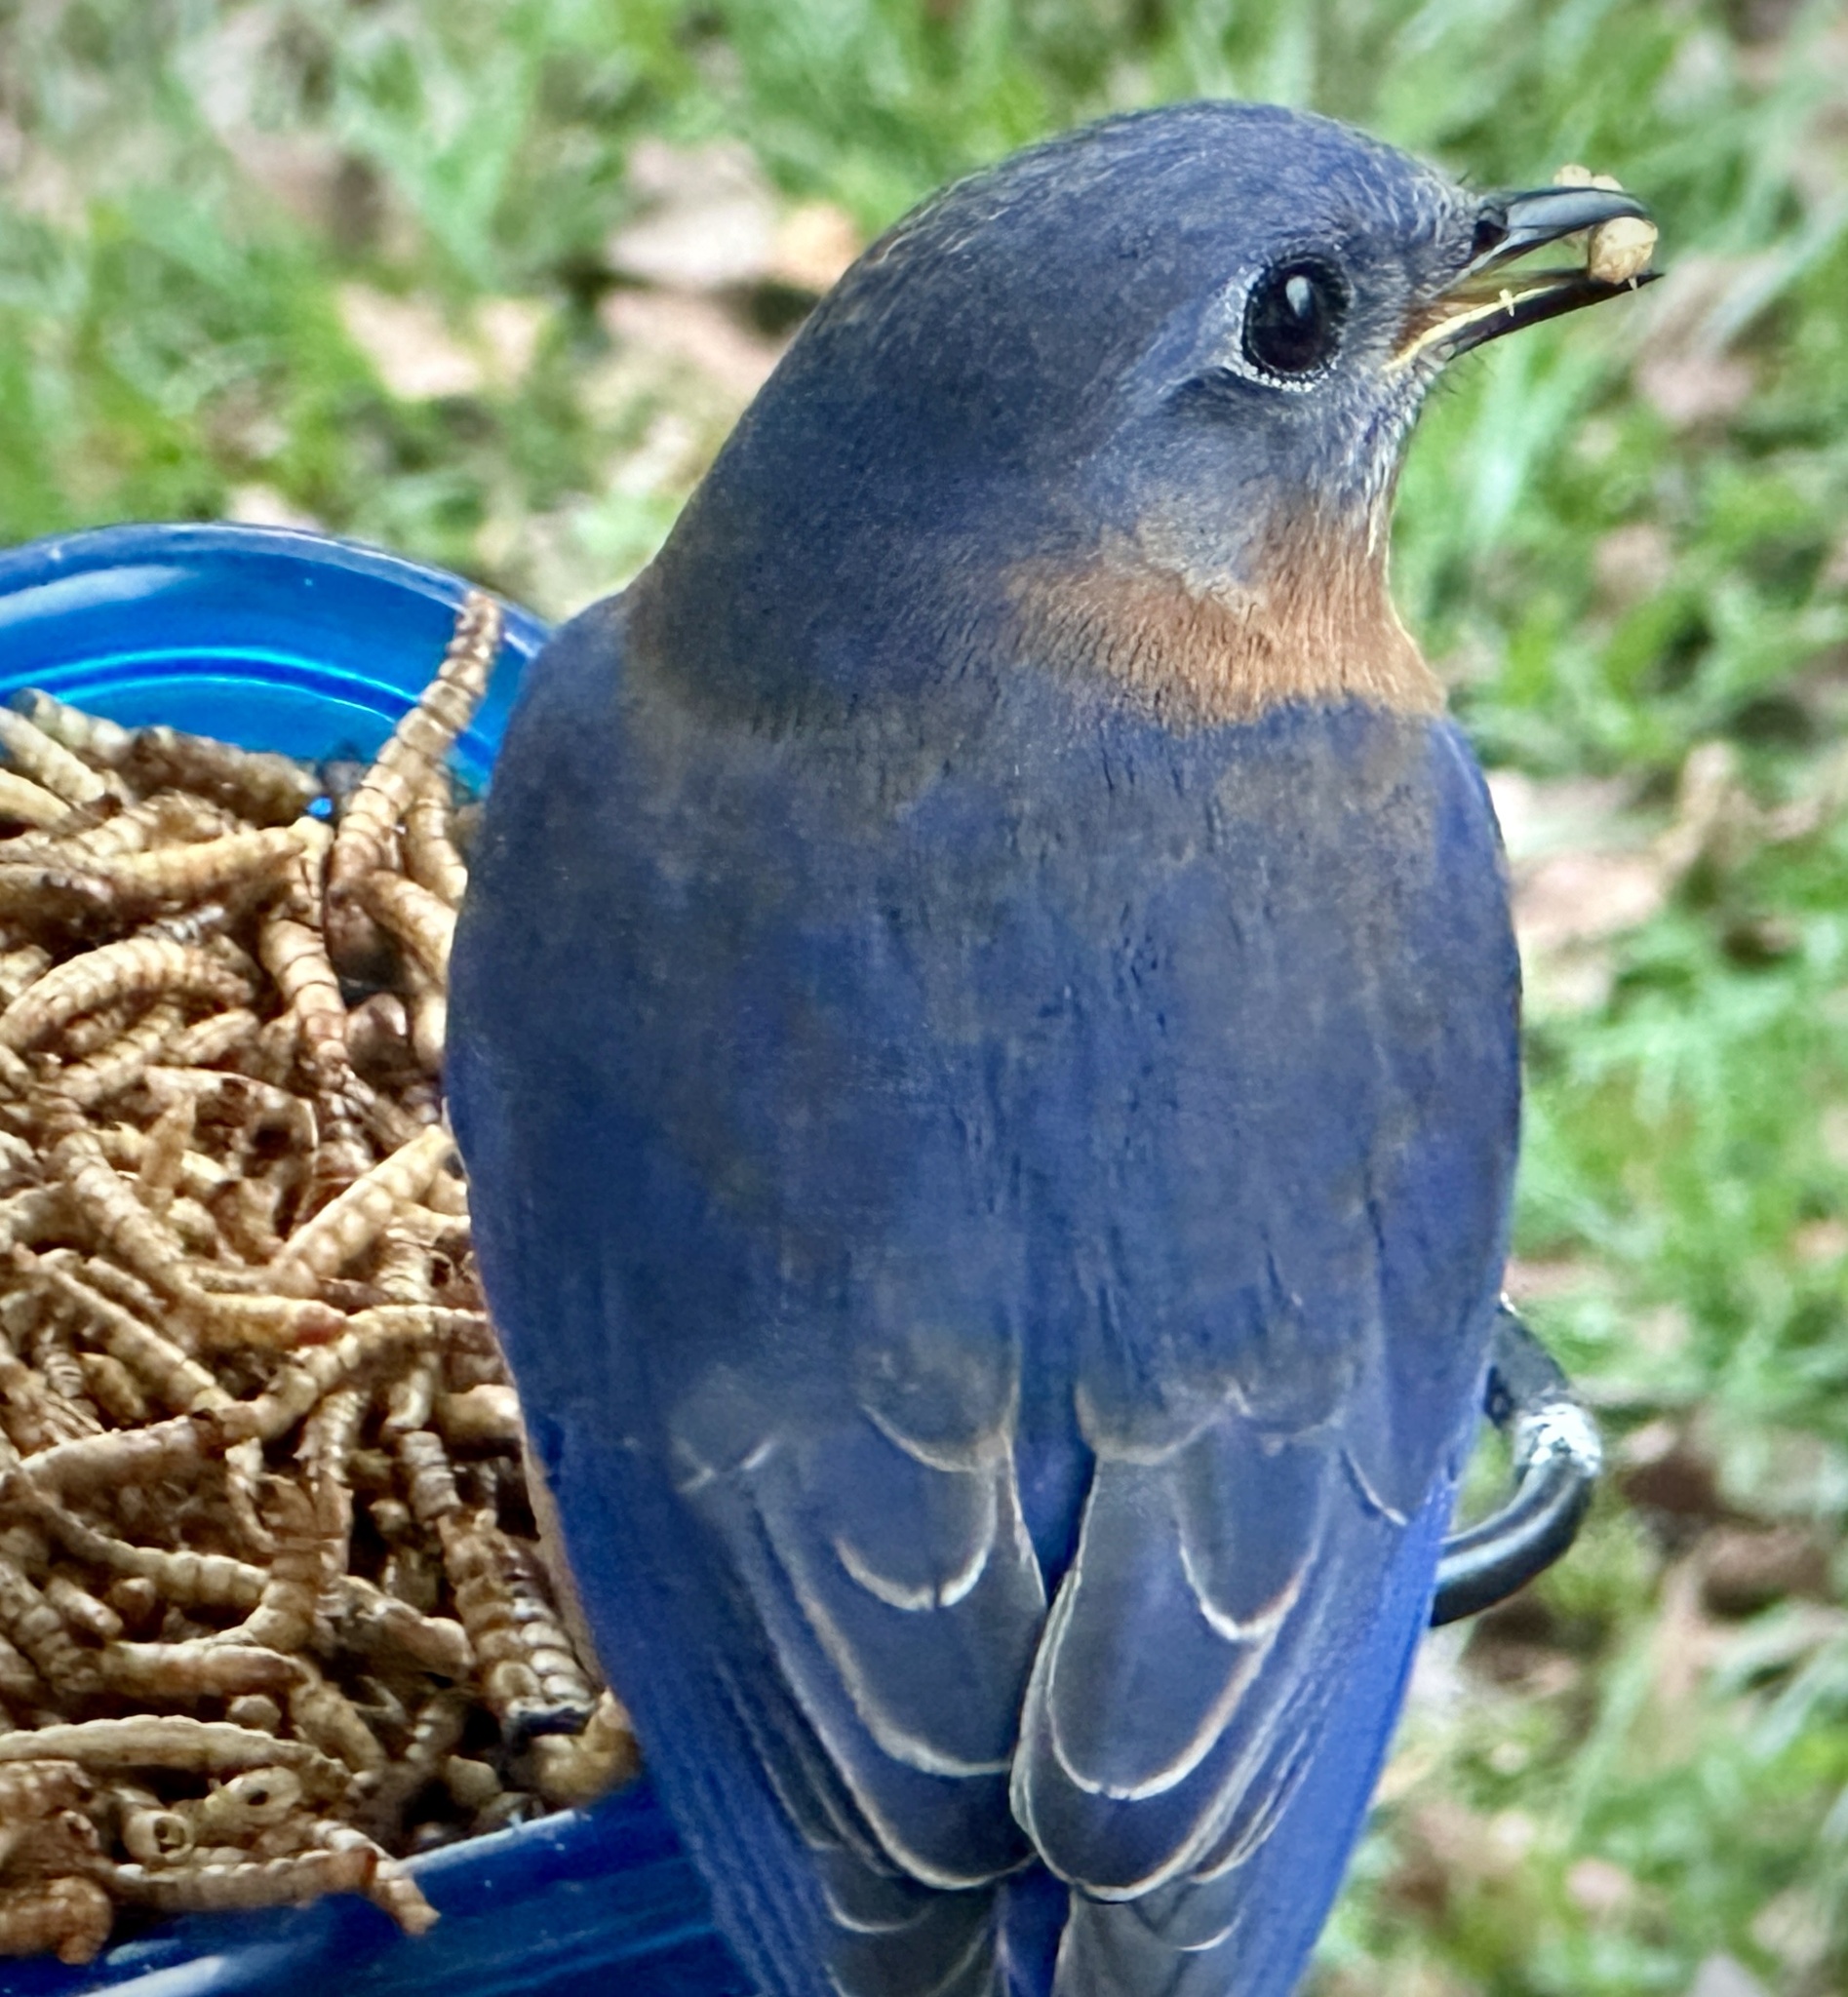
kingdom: Animalia
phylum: Chordata
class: Aves
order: Passeriformes
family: Turdidae
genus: Sialia
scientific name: Sialia sialis
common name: Eastern bluebird
